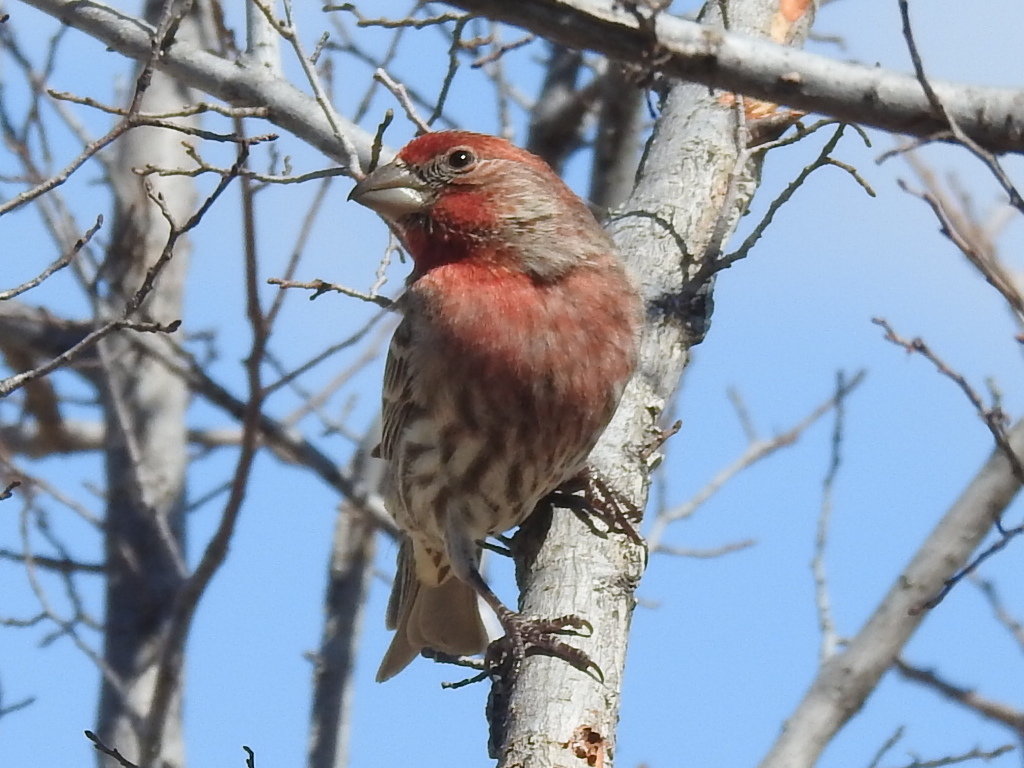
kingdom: Animalia
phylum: Chordata
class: Aves
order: Passeriformes
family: Fringillidae
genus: Haemorhous
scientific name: Haemorhous mexicanus
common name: House finch
